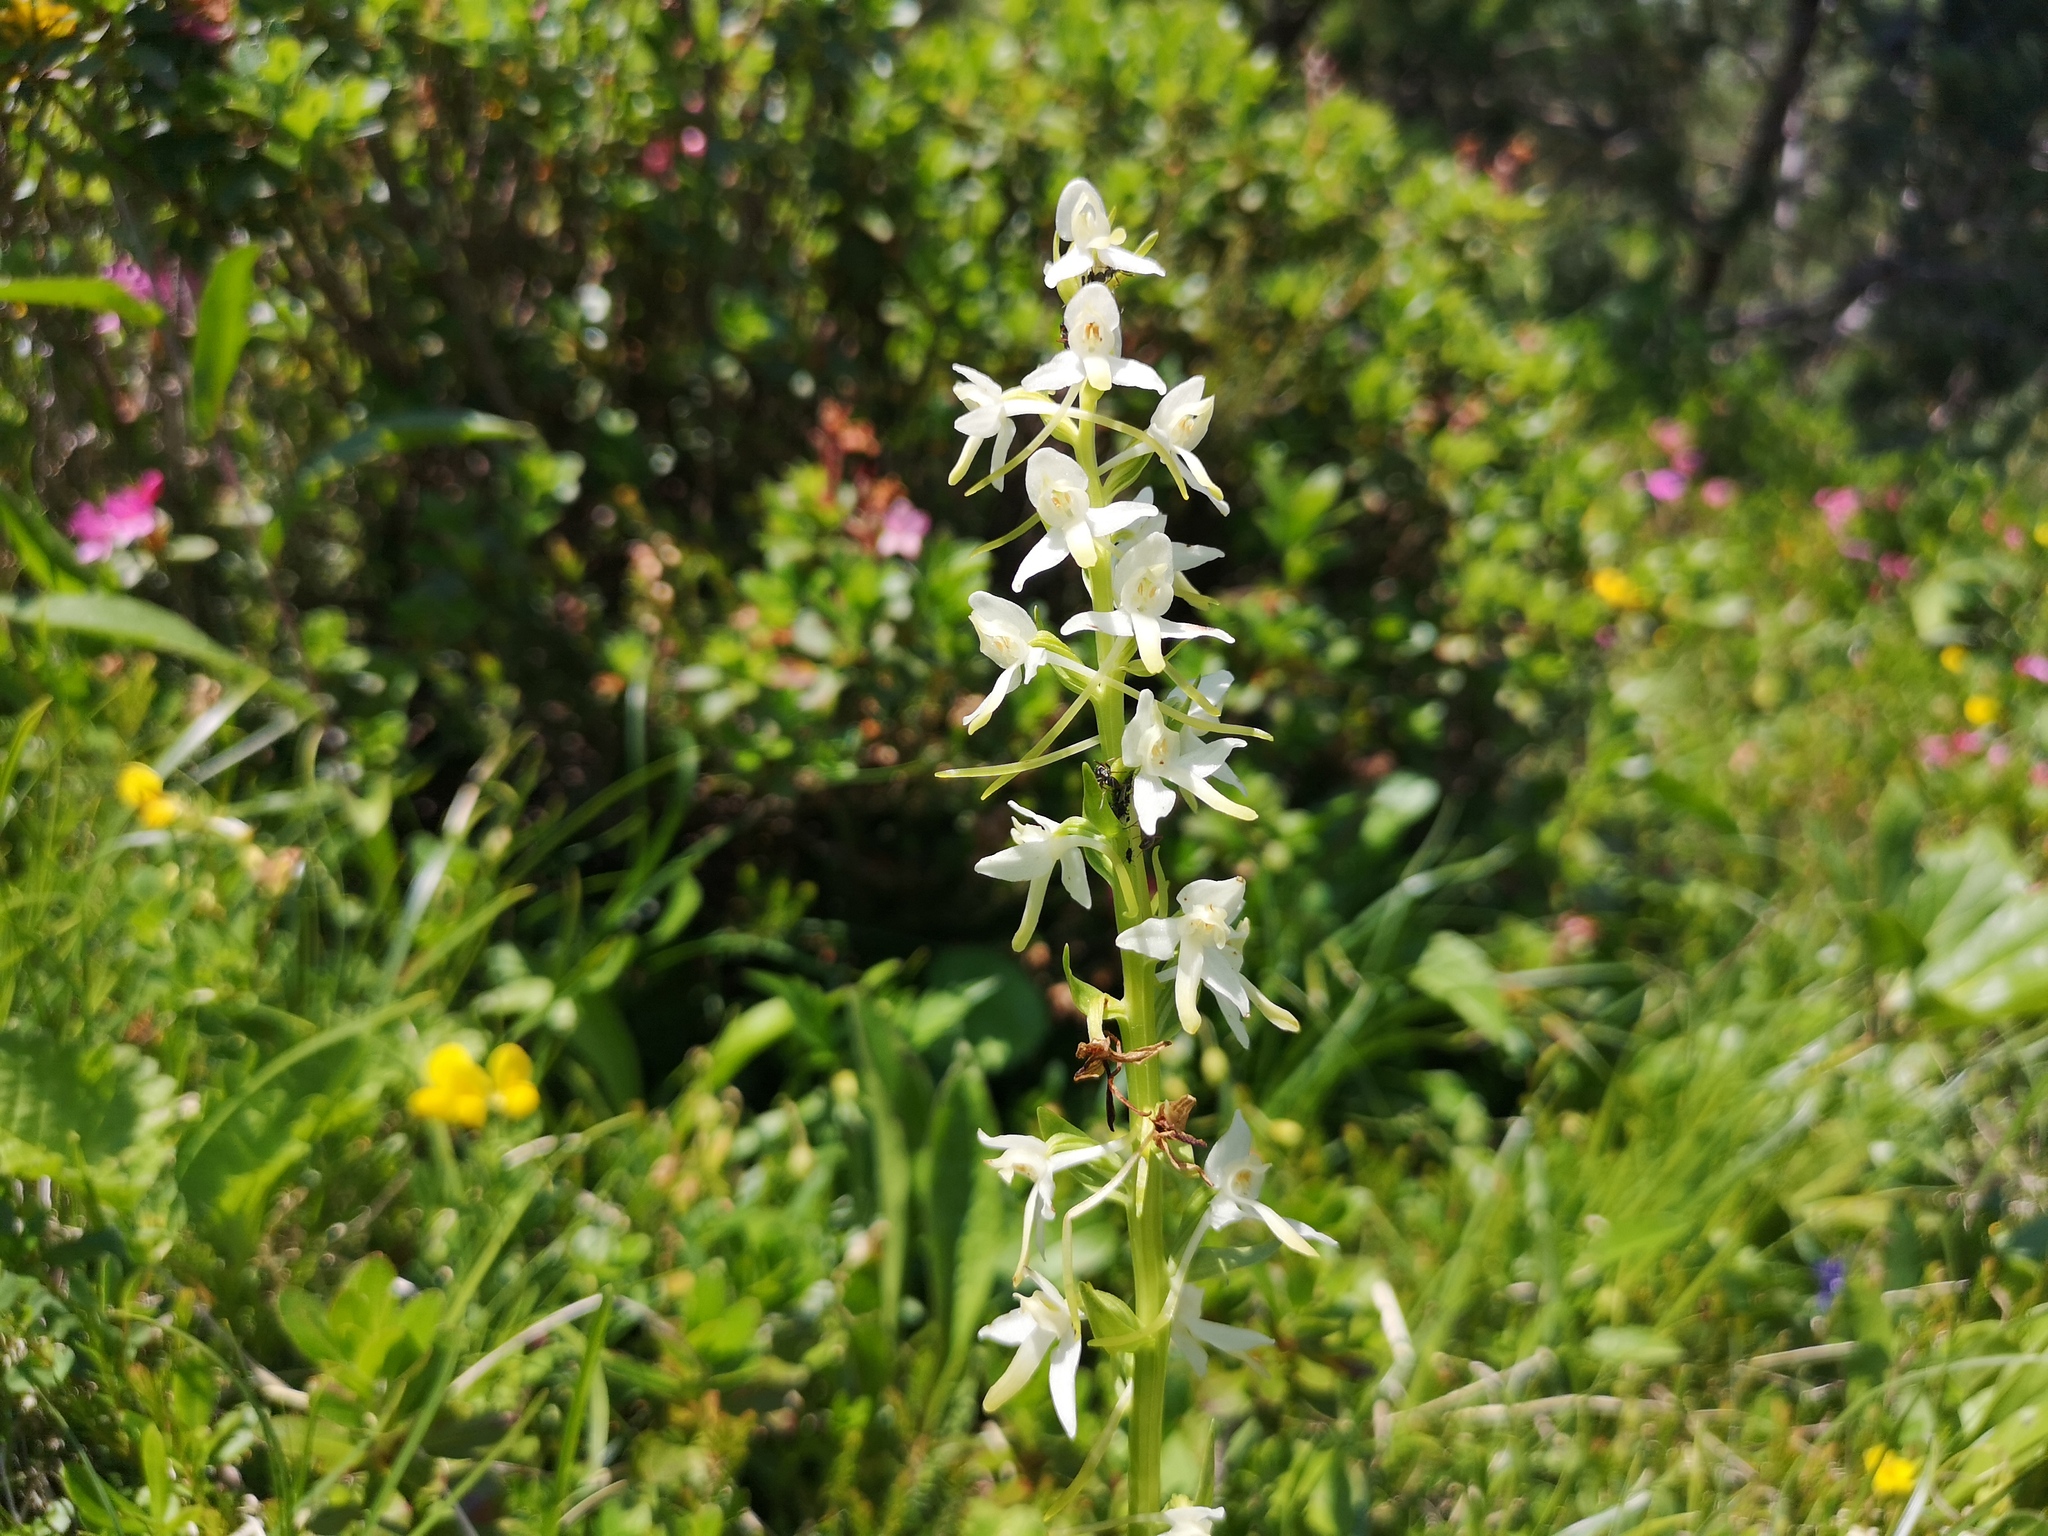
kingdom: Plantae
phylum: Tracheophyta
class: Liliopsida
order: Asparagales
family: Orchidaceae
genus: Platanthera
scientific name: Platanthera bifolia
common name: Lesser butterfly-orchid
